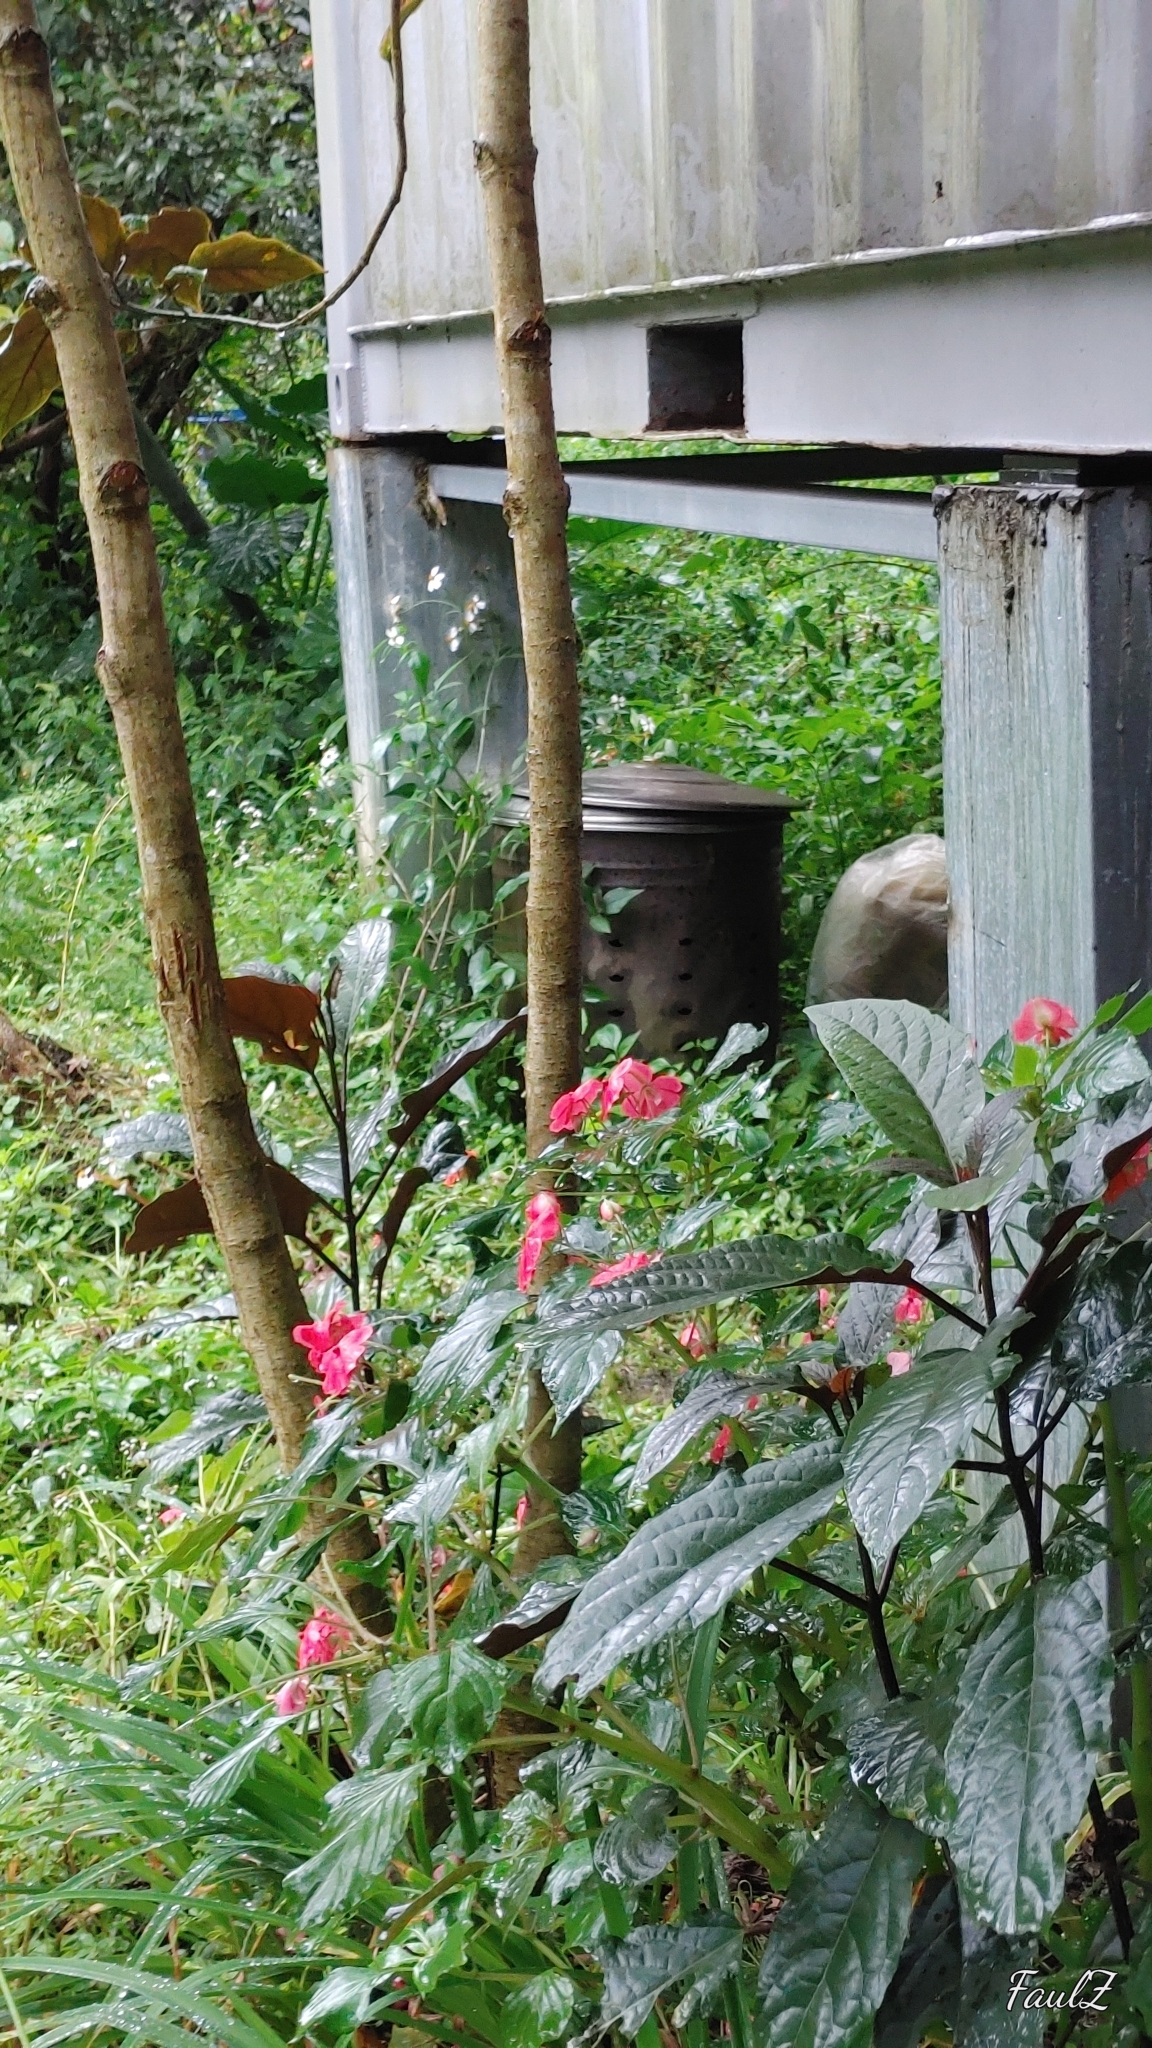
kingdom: Plantae
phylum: Tracheophyta
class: Magnoliopsida
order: Ericales
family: Balsaminaceae
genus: Impatiens
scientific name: Impatiens walleriana
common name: Buzzy lizzy
